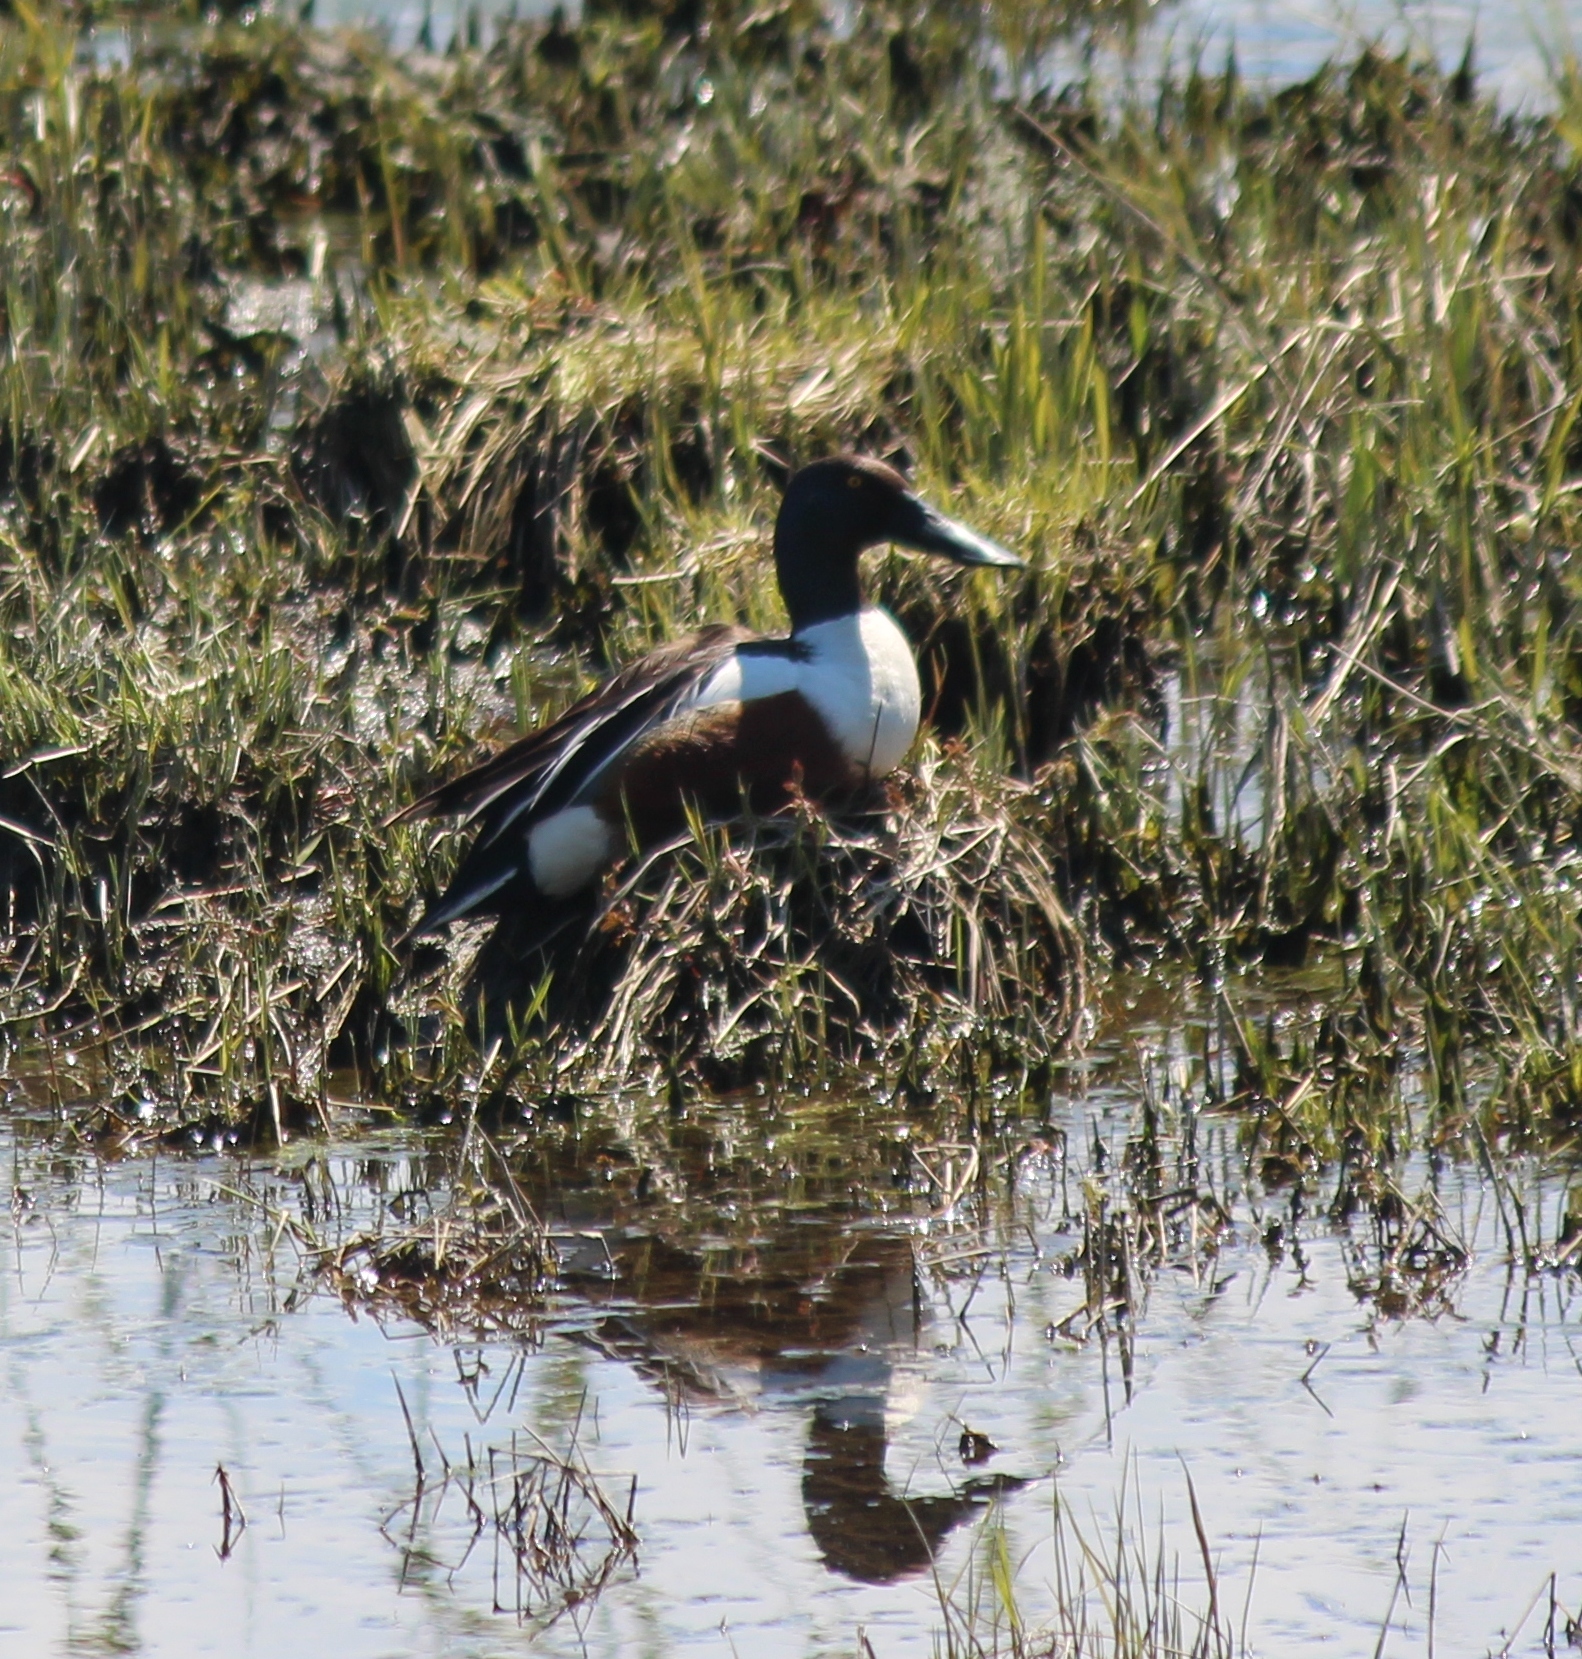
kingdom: Animalia
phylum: Chordata
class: Aves
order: Anseriformes
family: Anatidae
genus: Spatula
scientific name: Spatula clypeata
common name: Northern shoveler
